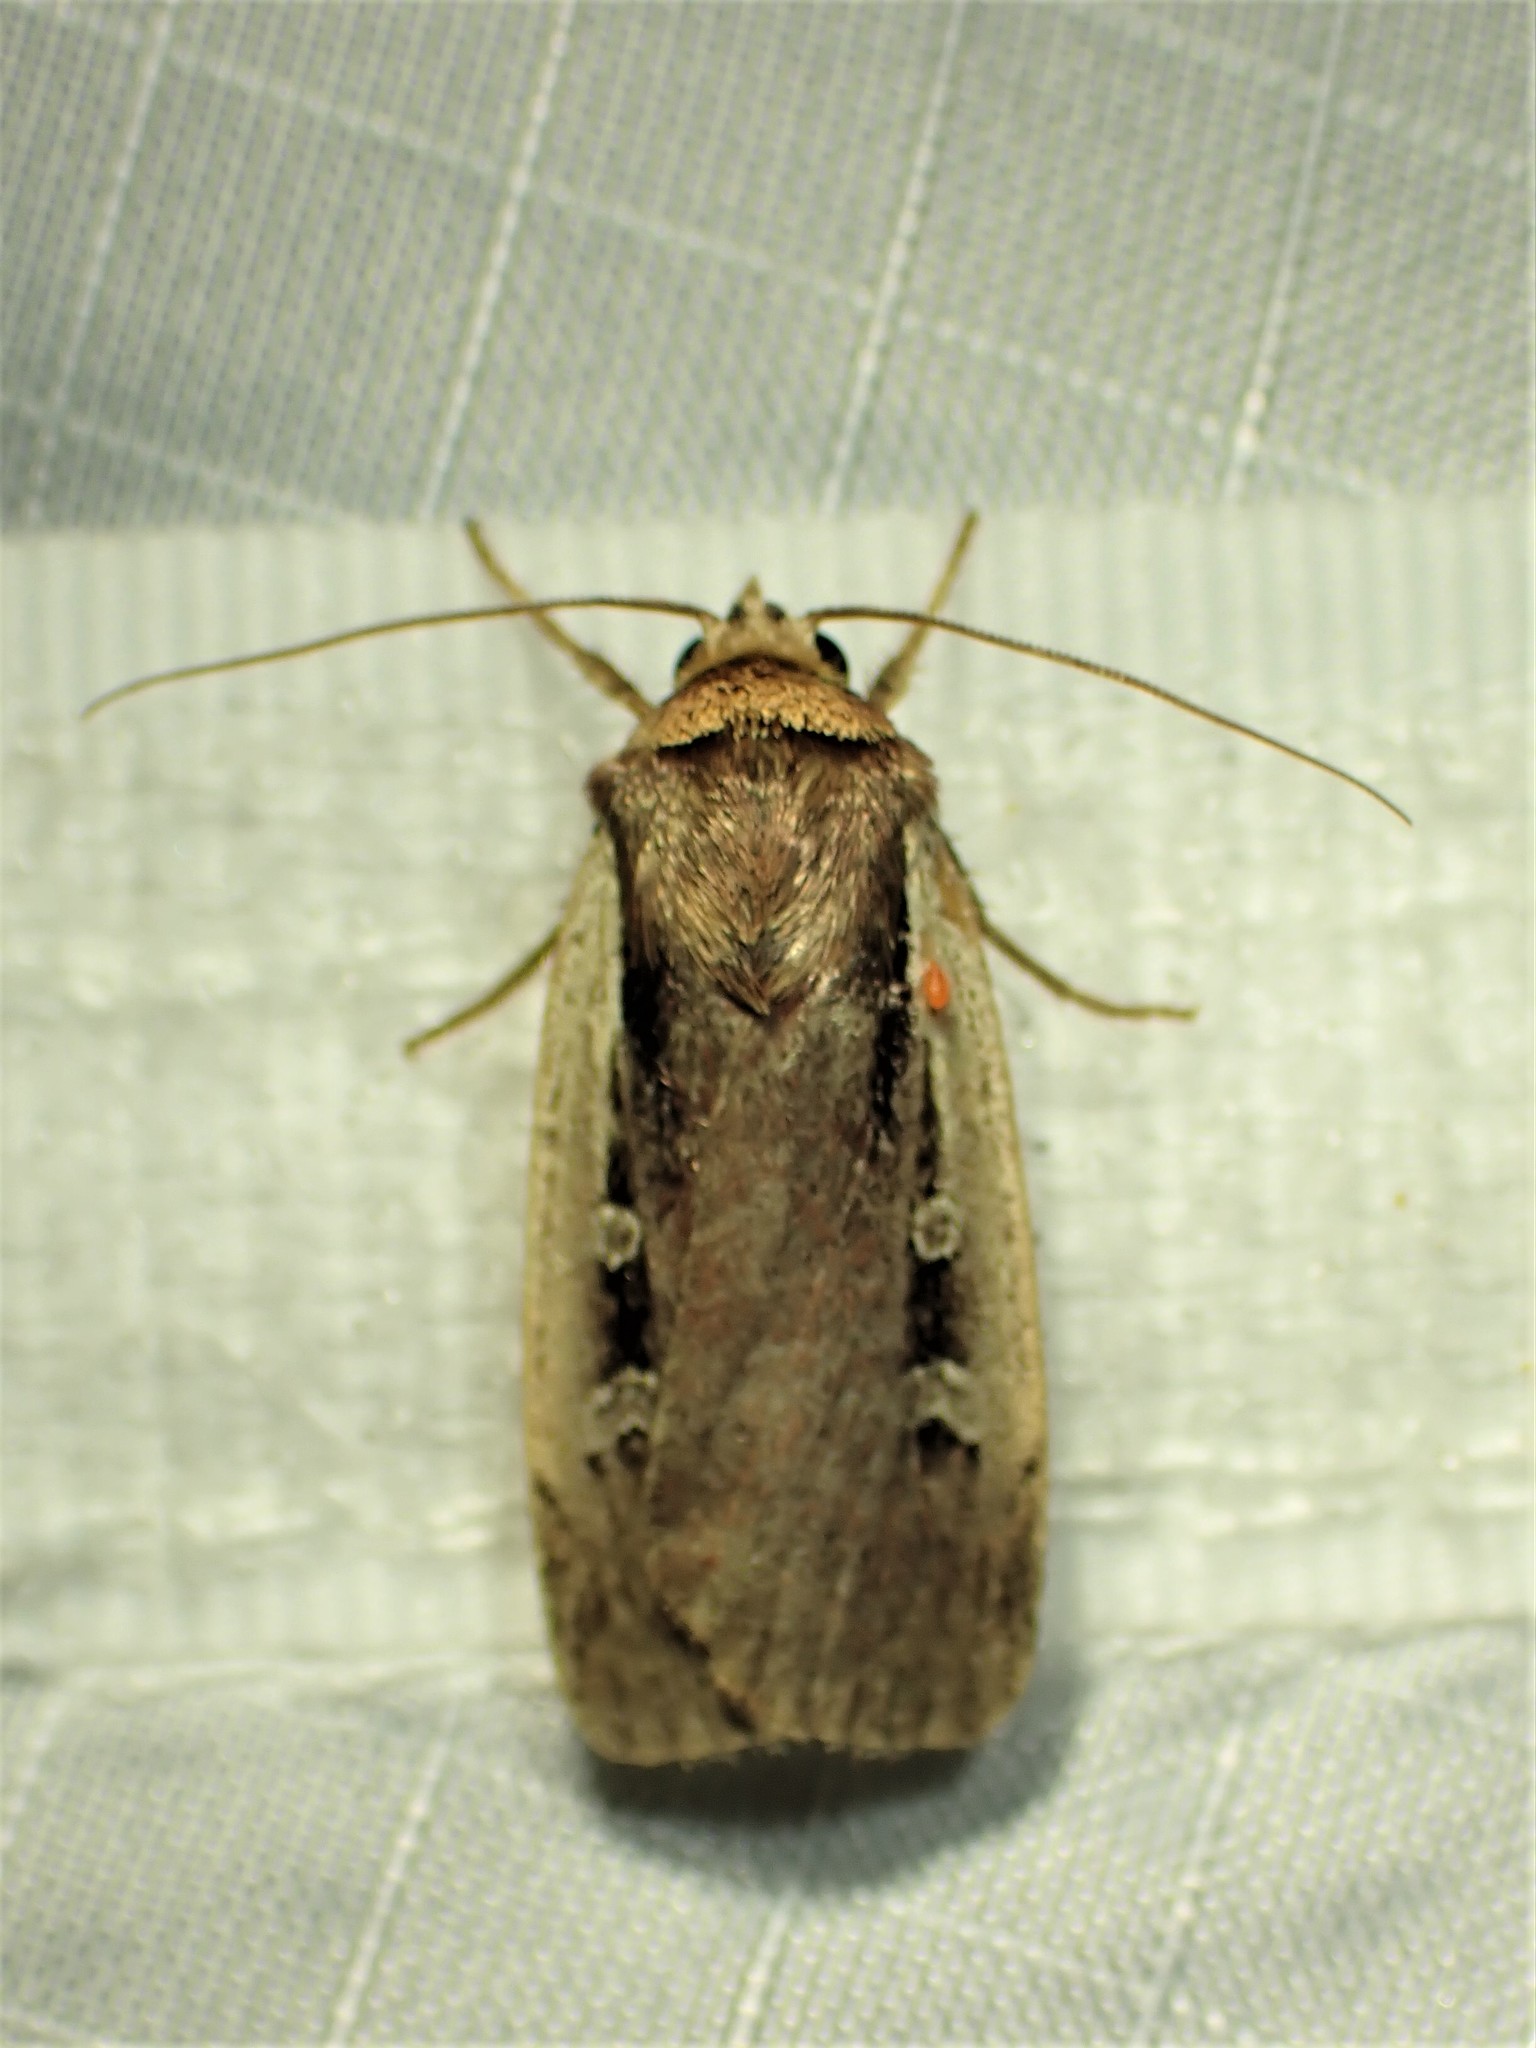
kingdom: Animalia
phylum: Arthropoda
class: Insecta
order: Lepidoptera
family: Noctuidae
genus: Ochropleura
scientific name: Ochropleura implecta
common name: Flame-shouldered dart
